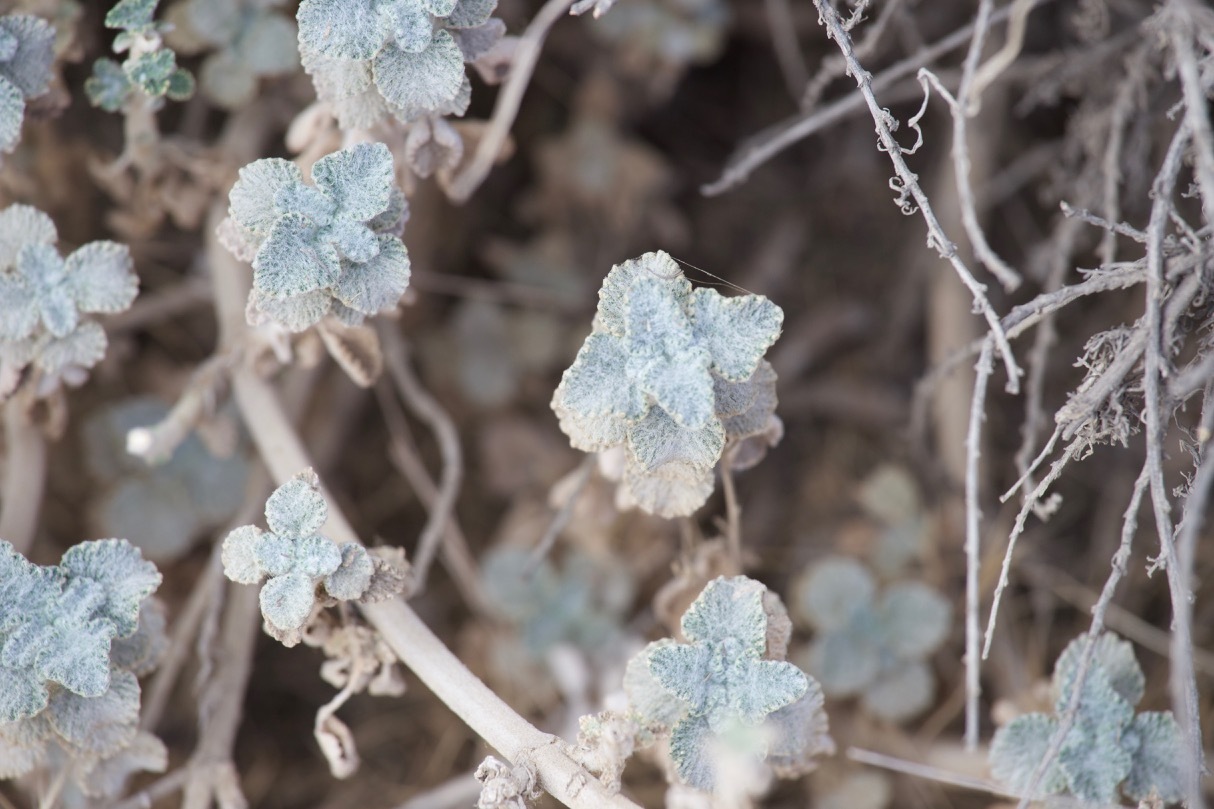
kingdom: Plantae
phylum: Tracheophyta
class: Magnoliopsida
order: Lamiales
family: Lamiaceae
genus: Marrubium
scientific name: Marrubium vulgare
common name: Horehound
